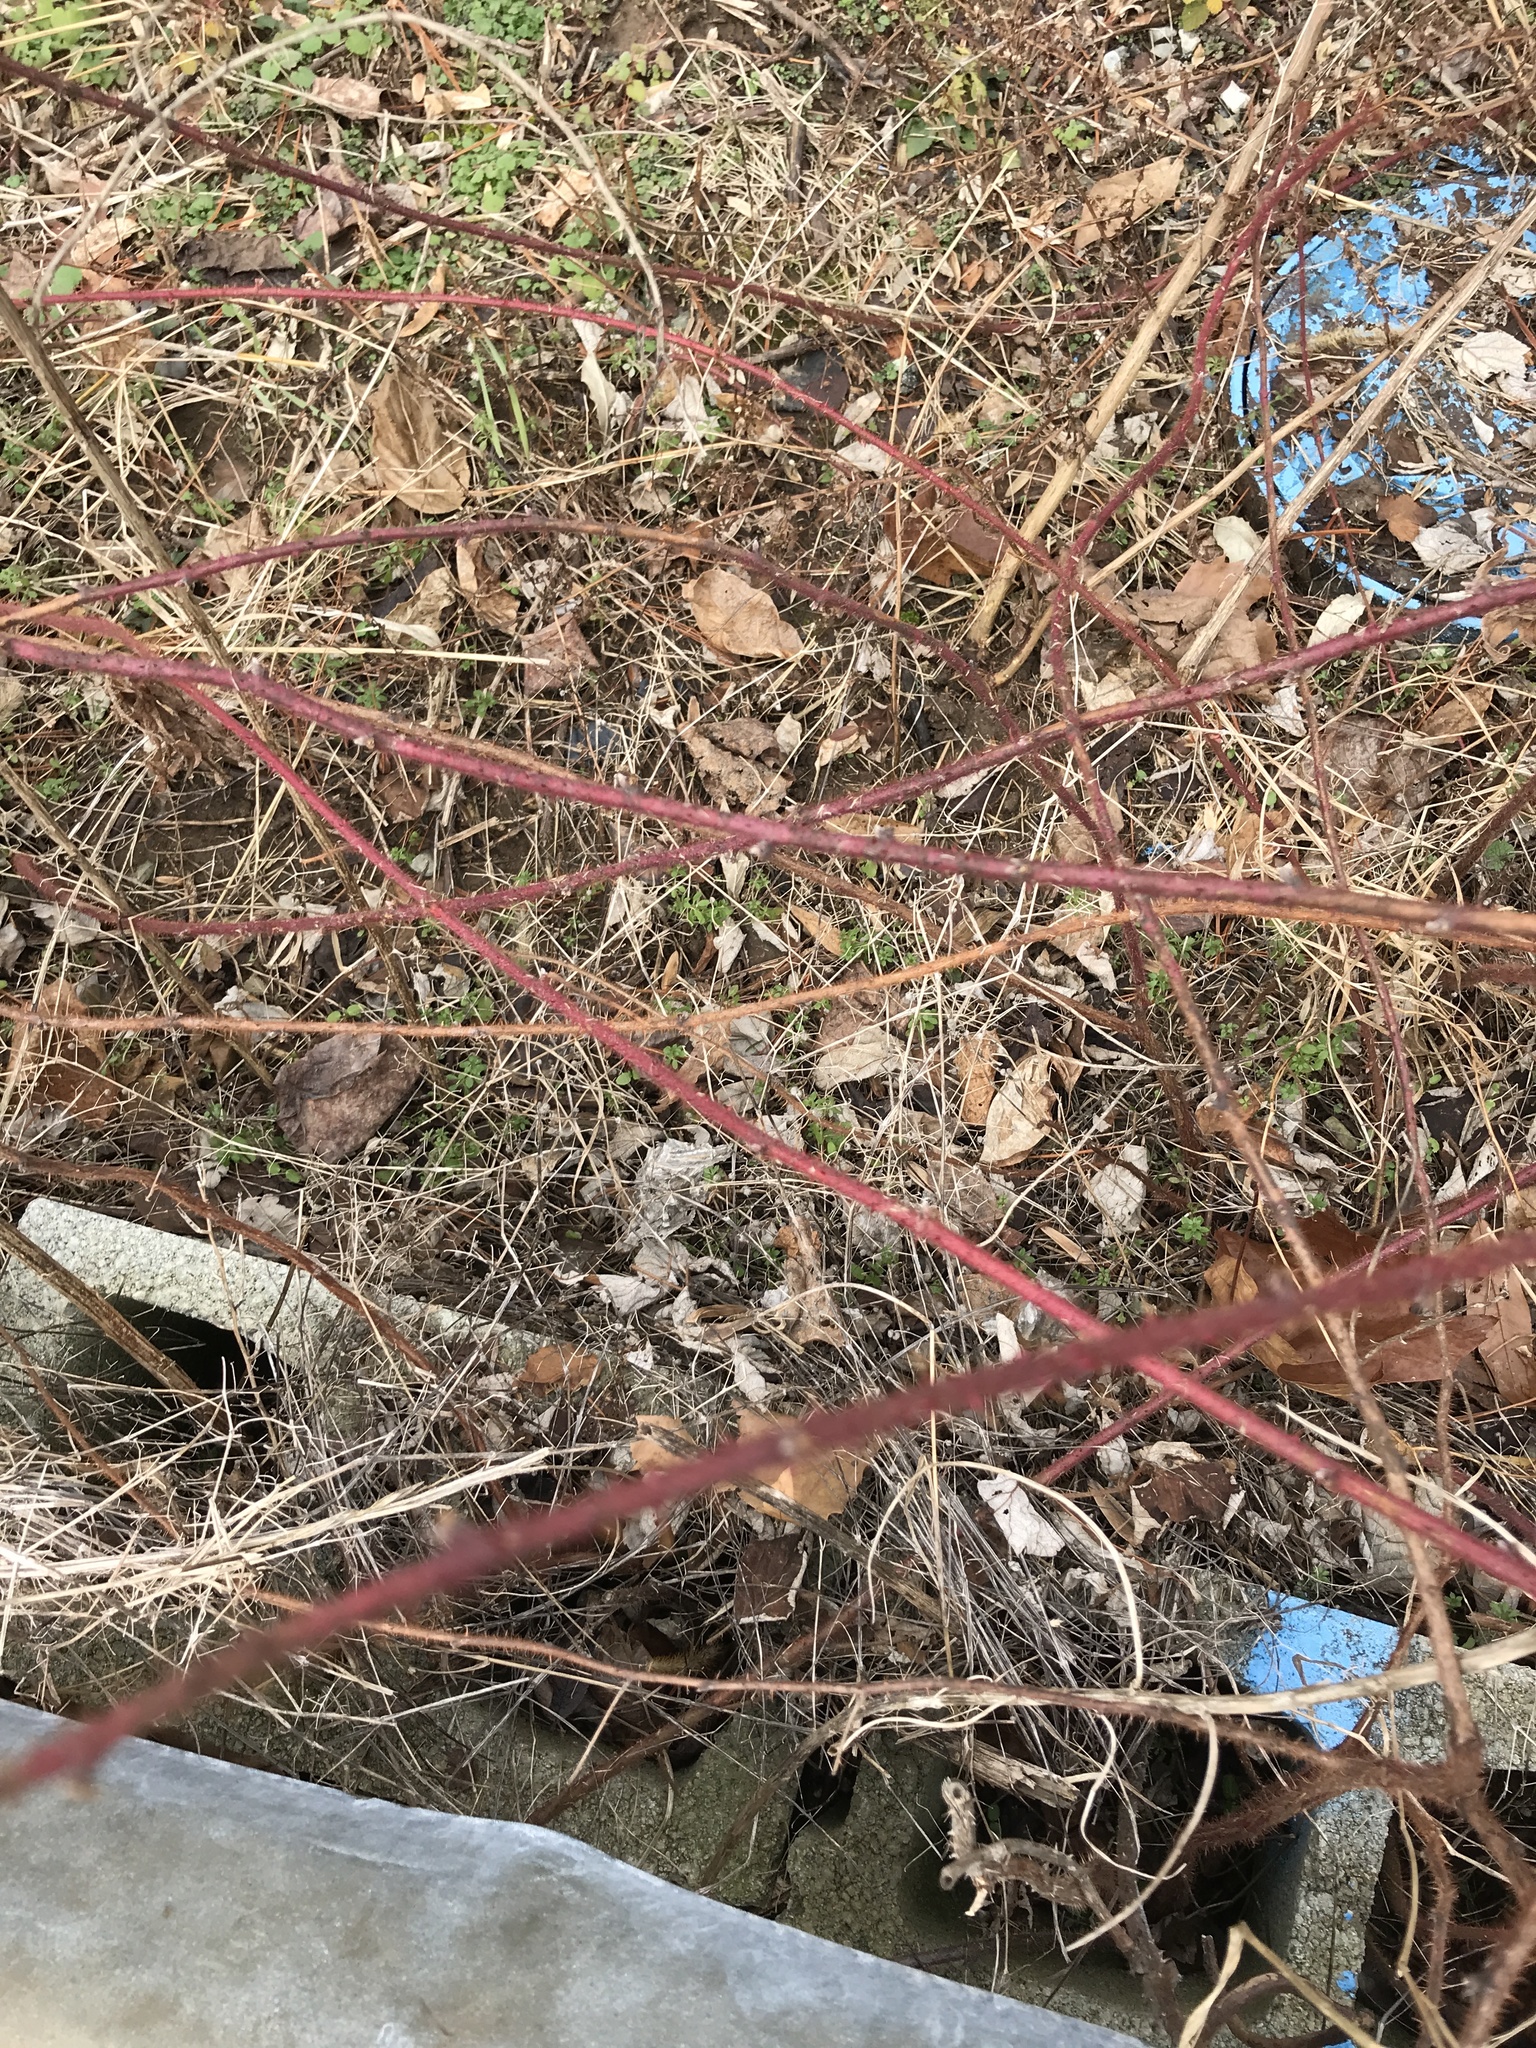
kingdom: Plantae
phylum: Tracheophyta
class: Magnoliopsida
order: Rosales
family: Rosaceae
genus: Rubus
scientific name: Rubus phoenicolasius
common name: Japanese wineberry
